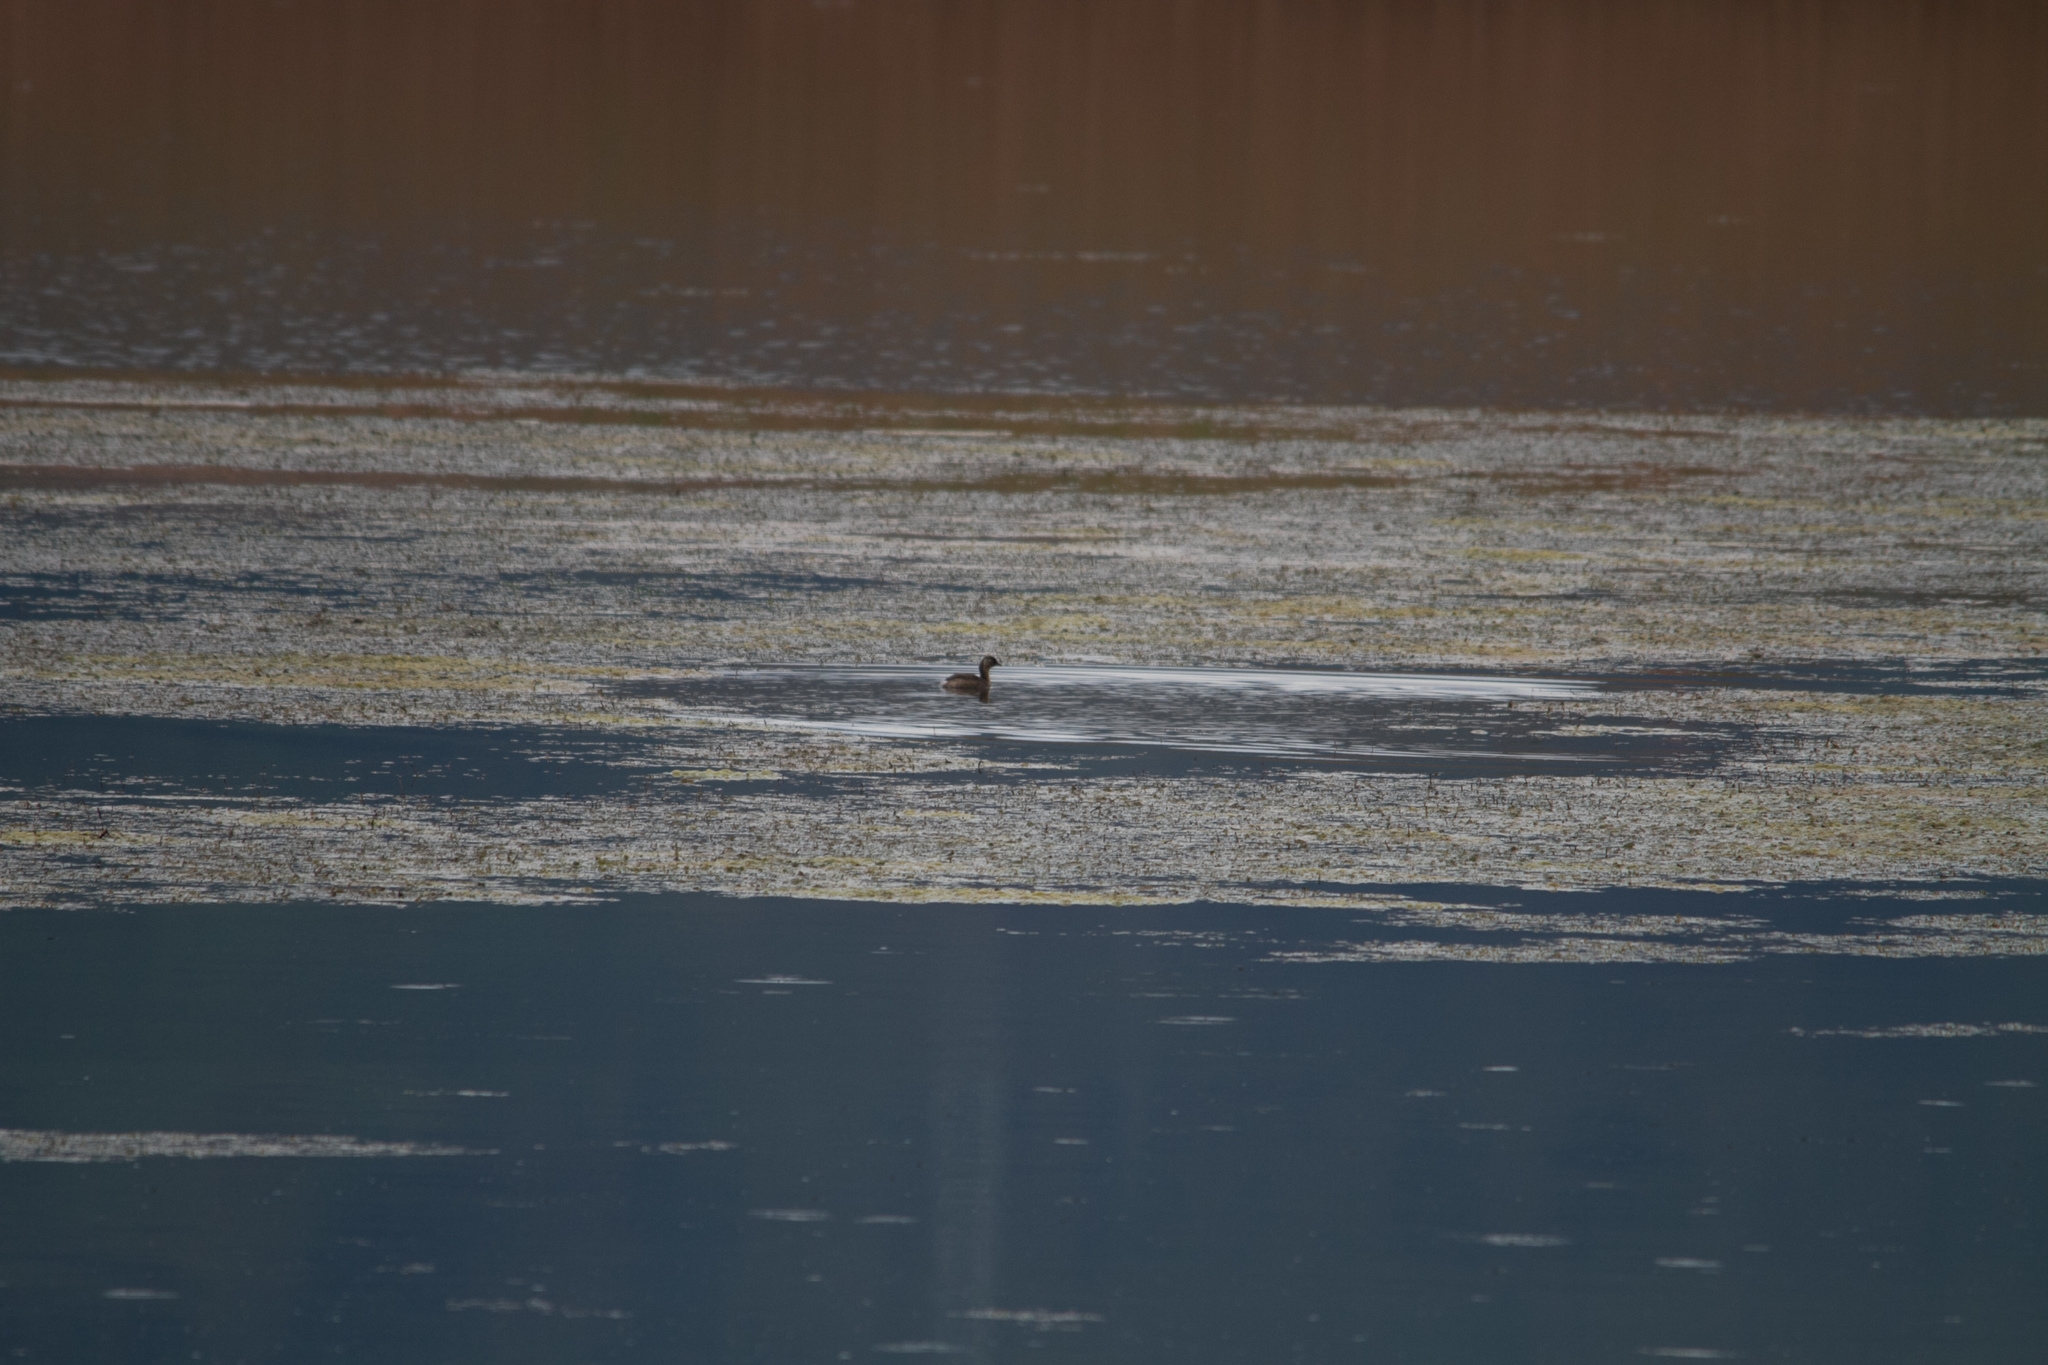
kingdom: Animalia
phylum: Chordata
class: Aves
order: Podicipediformes
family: Podicipedidae
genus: Tachybaptus
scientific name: Tachybaptus ruficollis
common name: Little grebe
